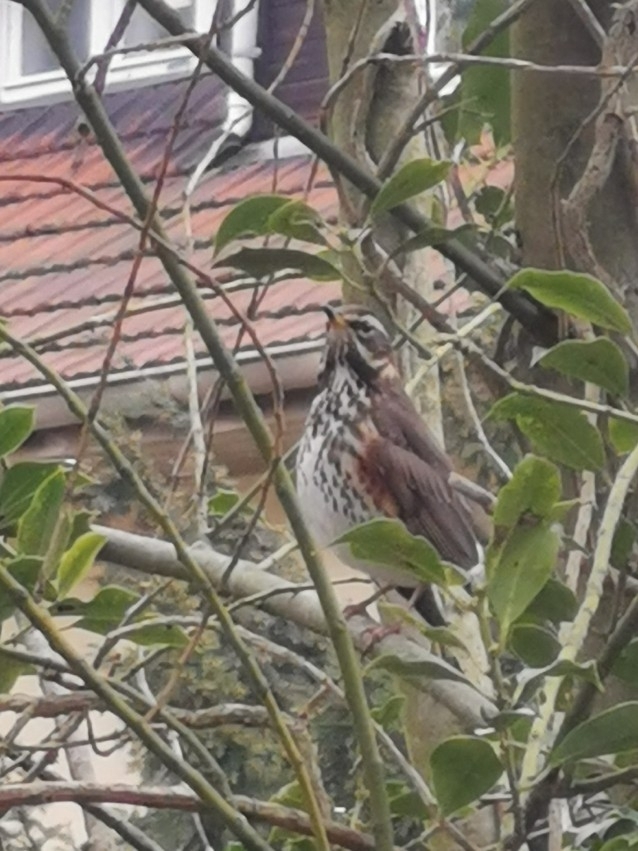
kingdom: Animalia
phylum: Chordata
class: Aves
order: Passeriformes
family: Turdidae
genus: Turdus
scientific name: Turdus iliacus
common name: Redwing
